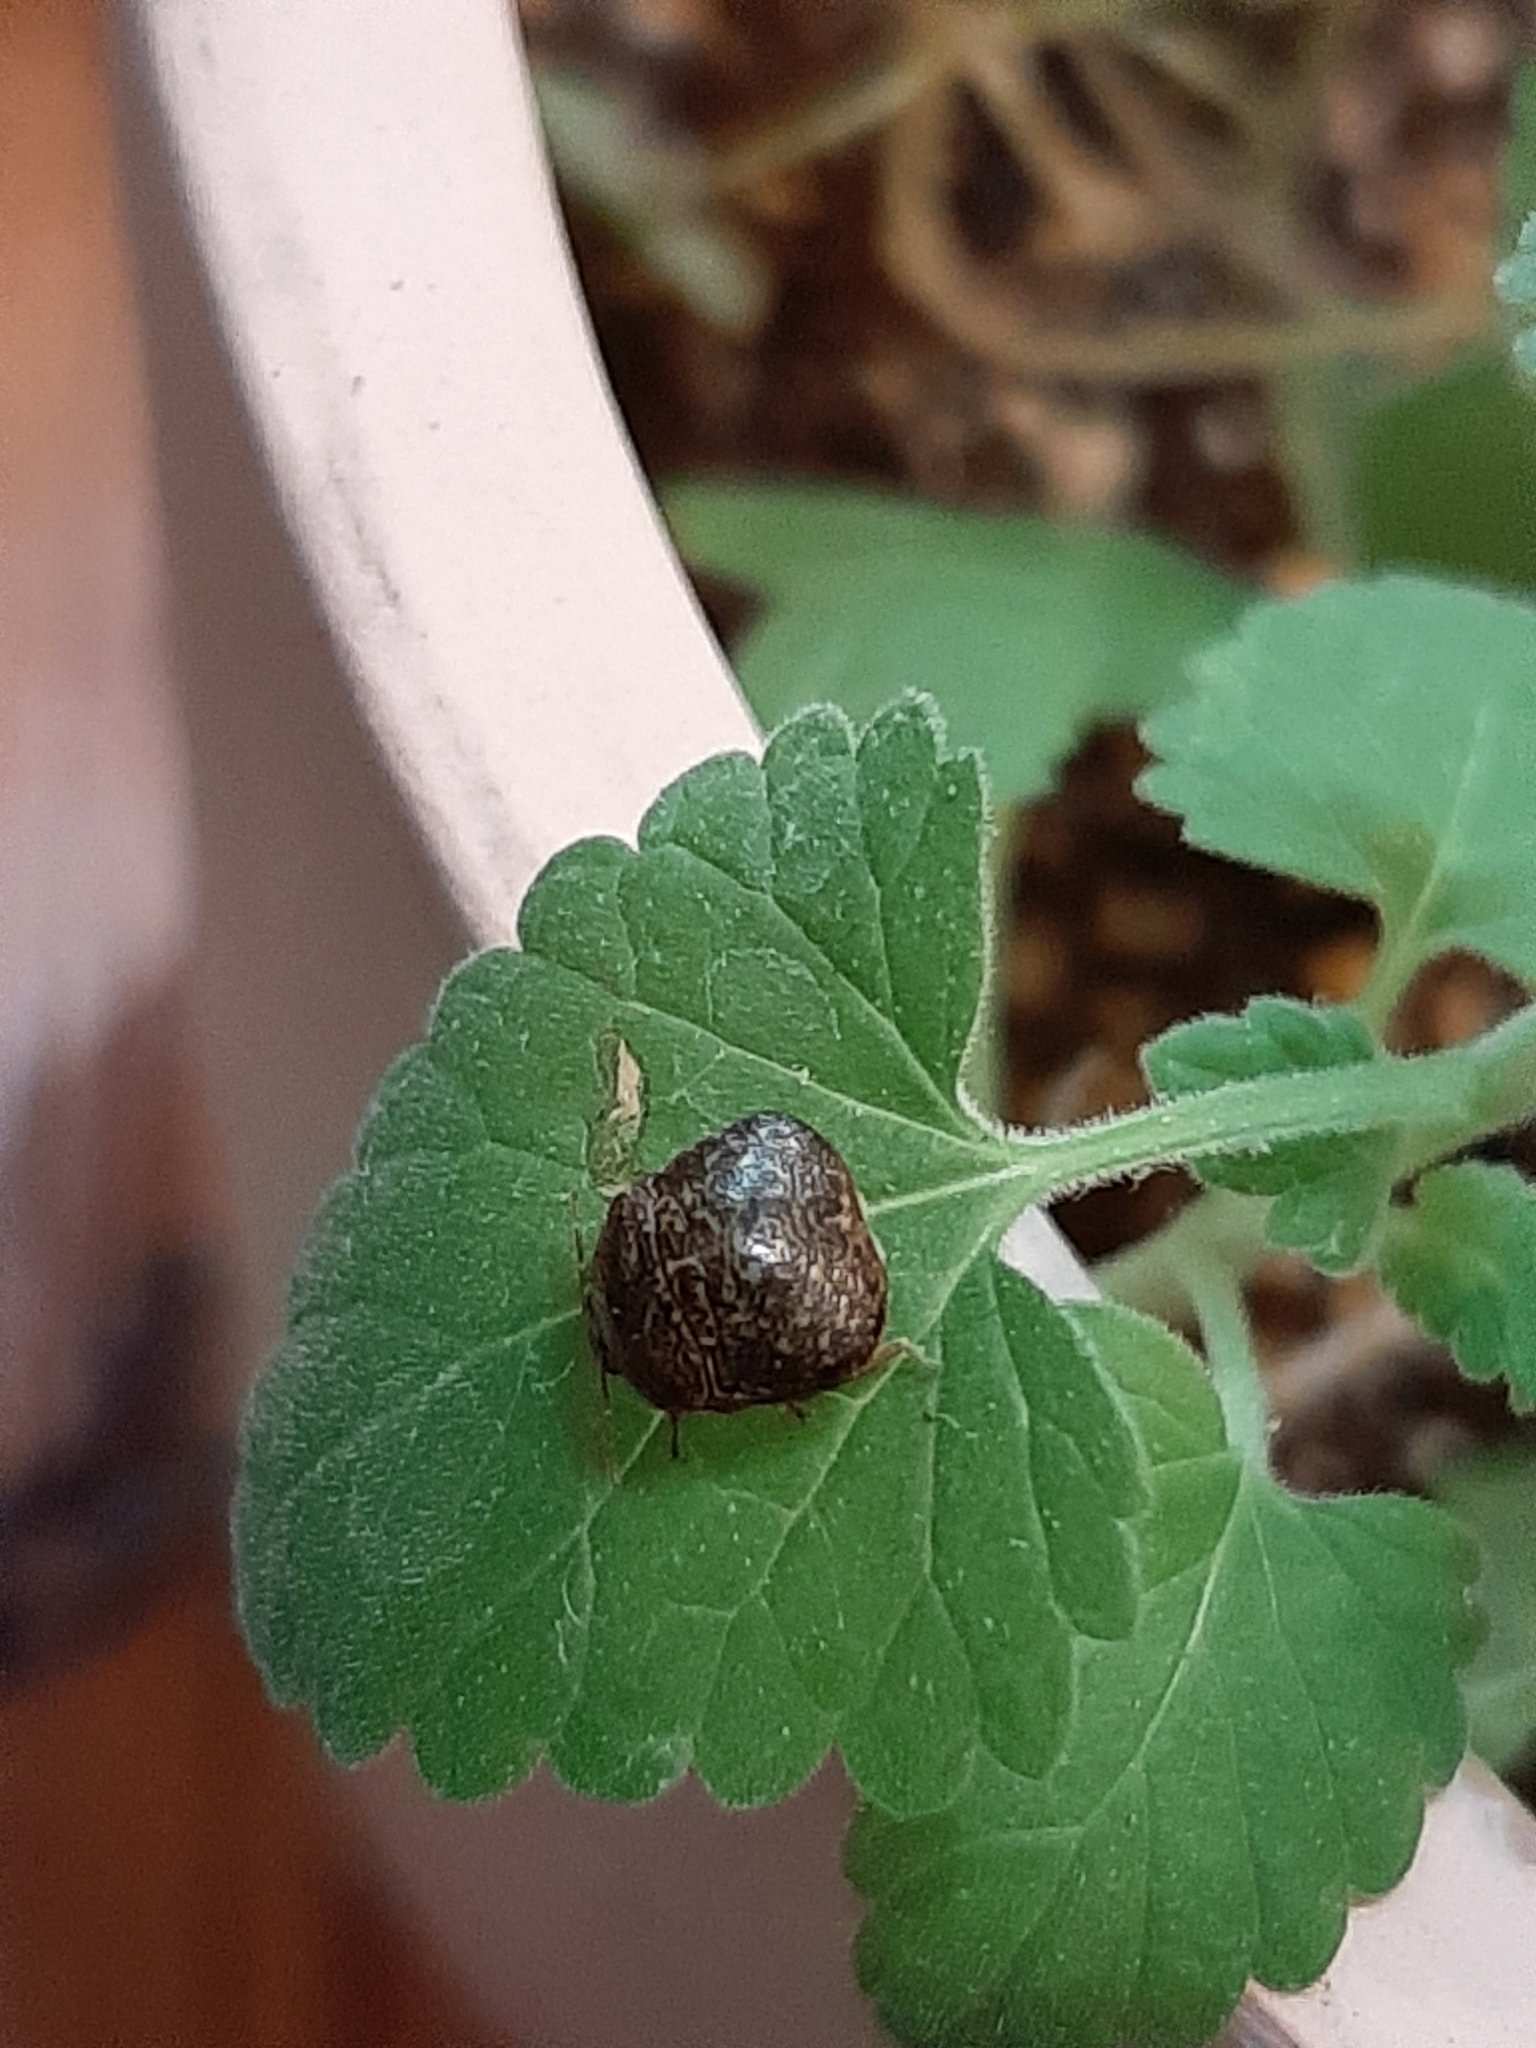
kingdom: Animalia
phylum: Arthropoda
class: Insecta
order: Hemiptera
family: Plataspidae
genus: Megacopta
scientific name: Megacopta cribraria
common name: Bean plataspid
